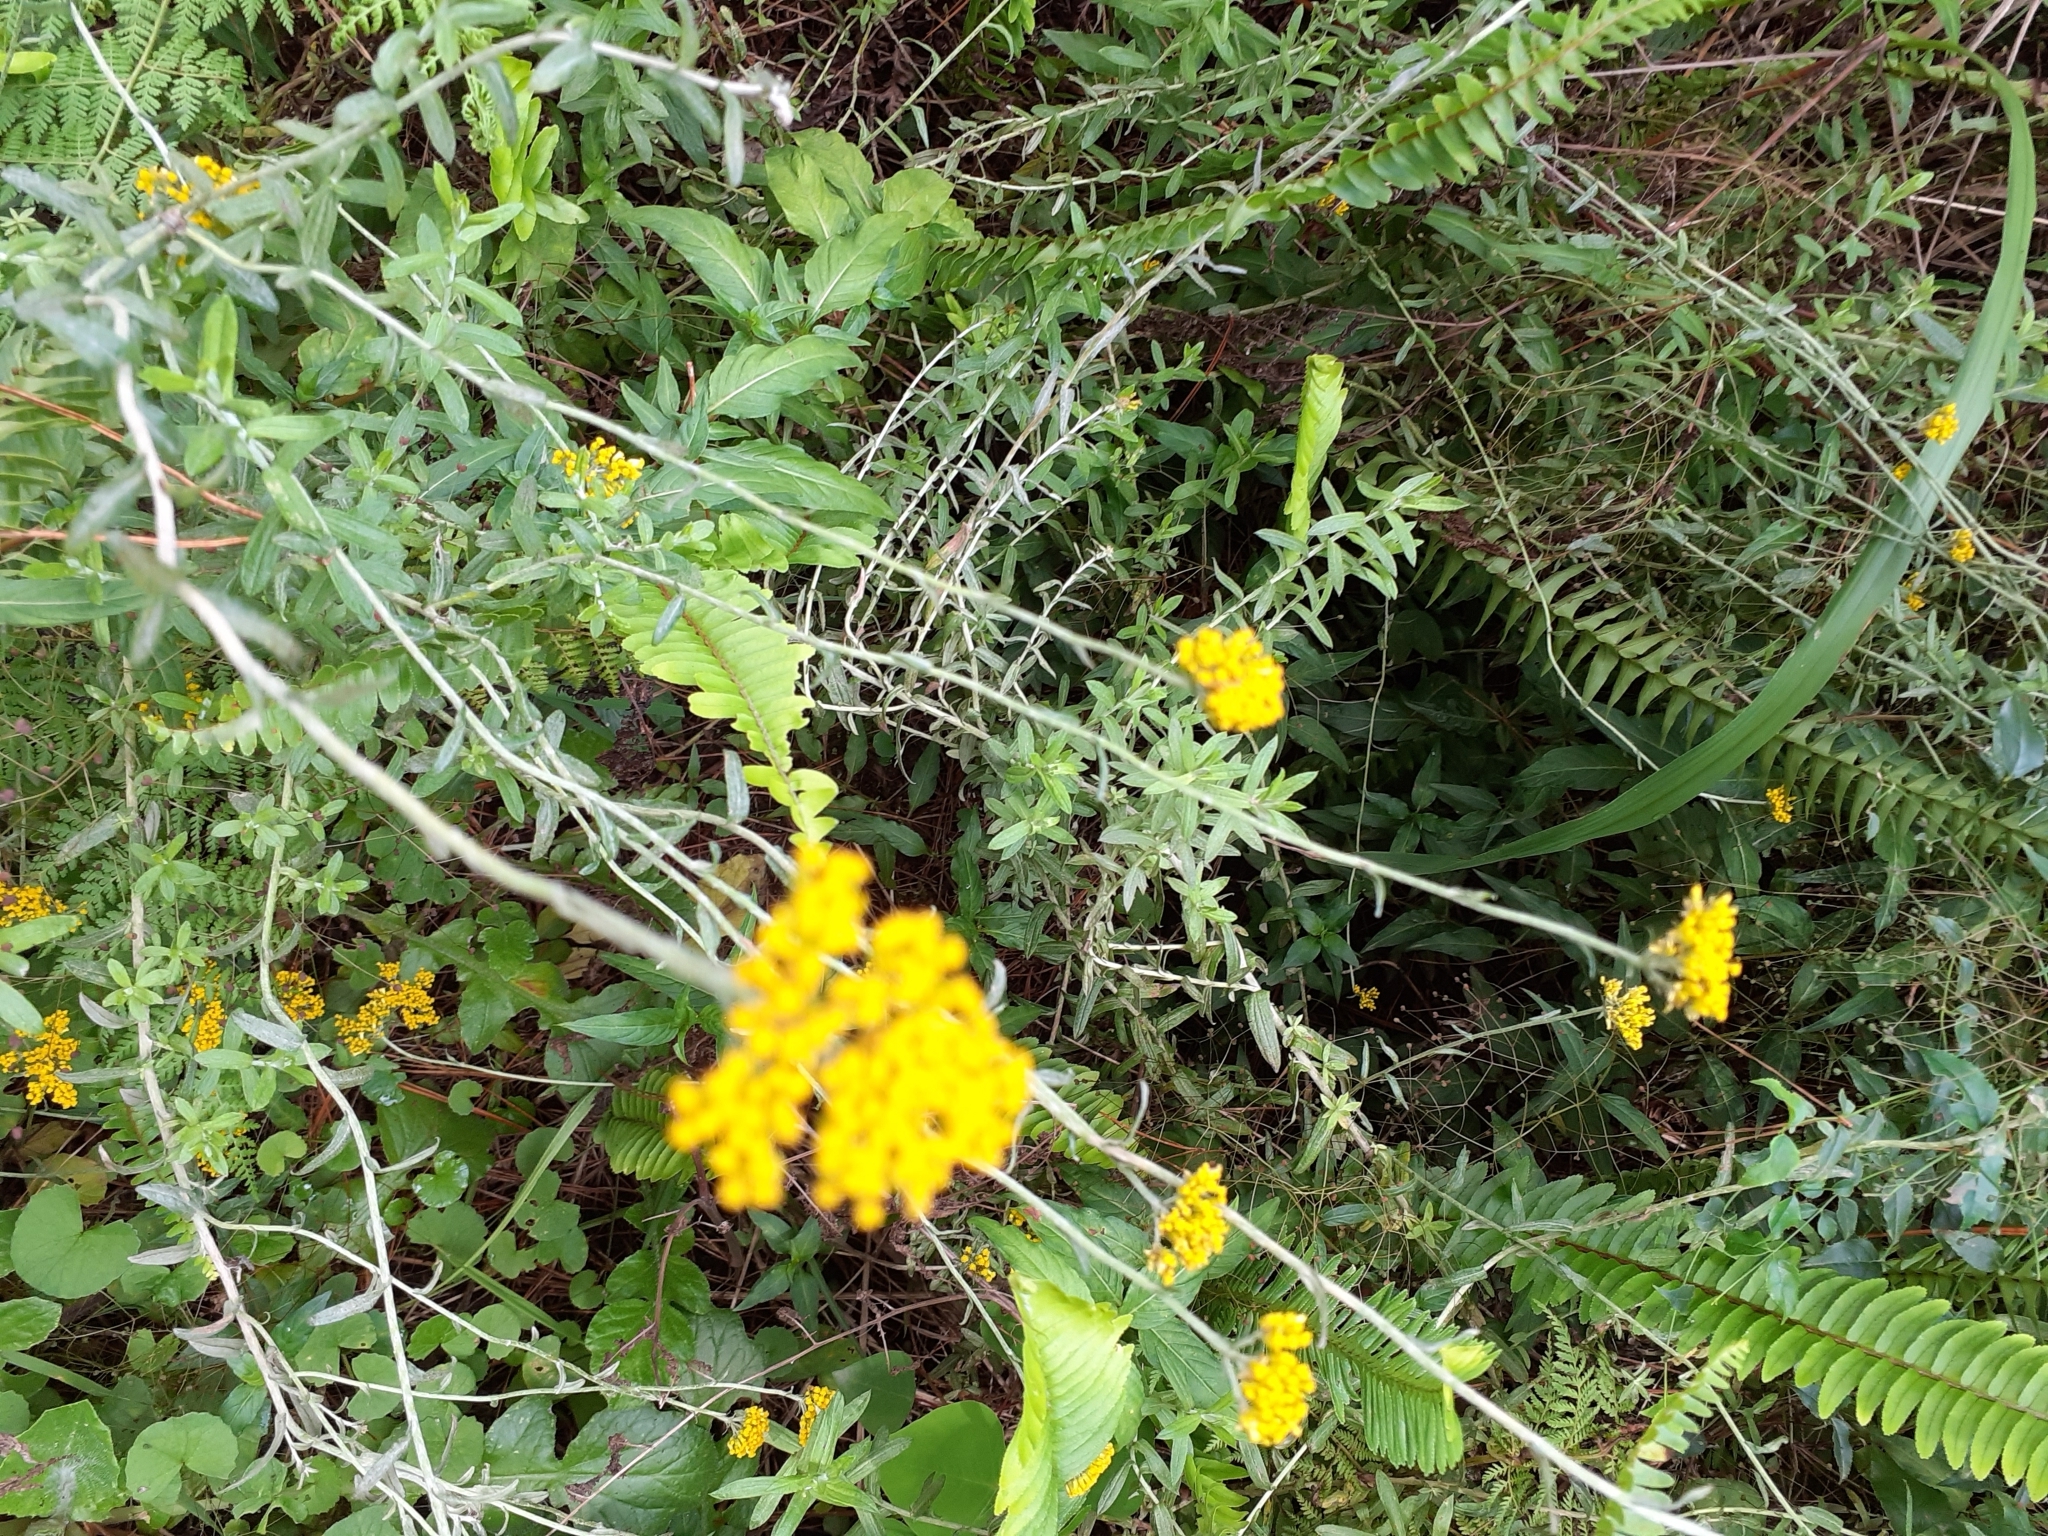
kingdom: Plantae
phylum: Tracheophyta
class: Magnoliopsida
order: Asterales
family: Asteraceae
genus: Helichrysum
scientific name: Helichrysum cymosum
